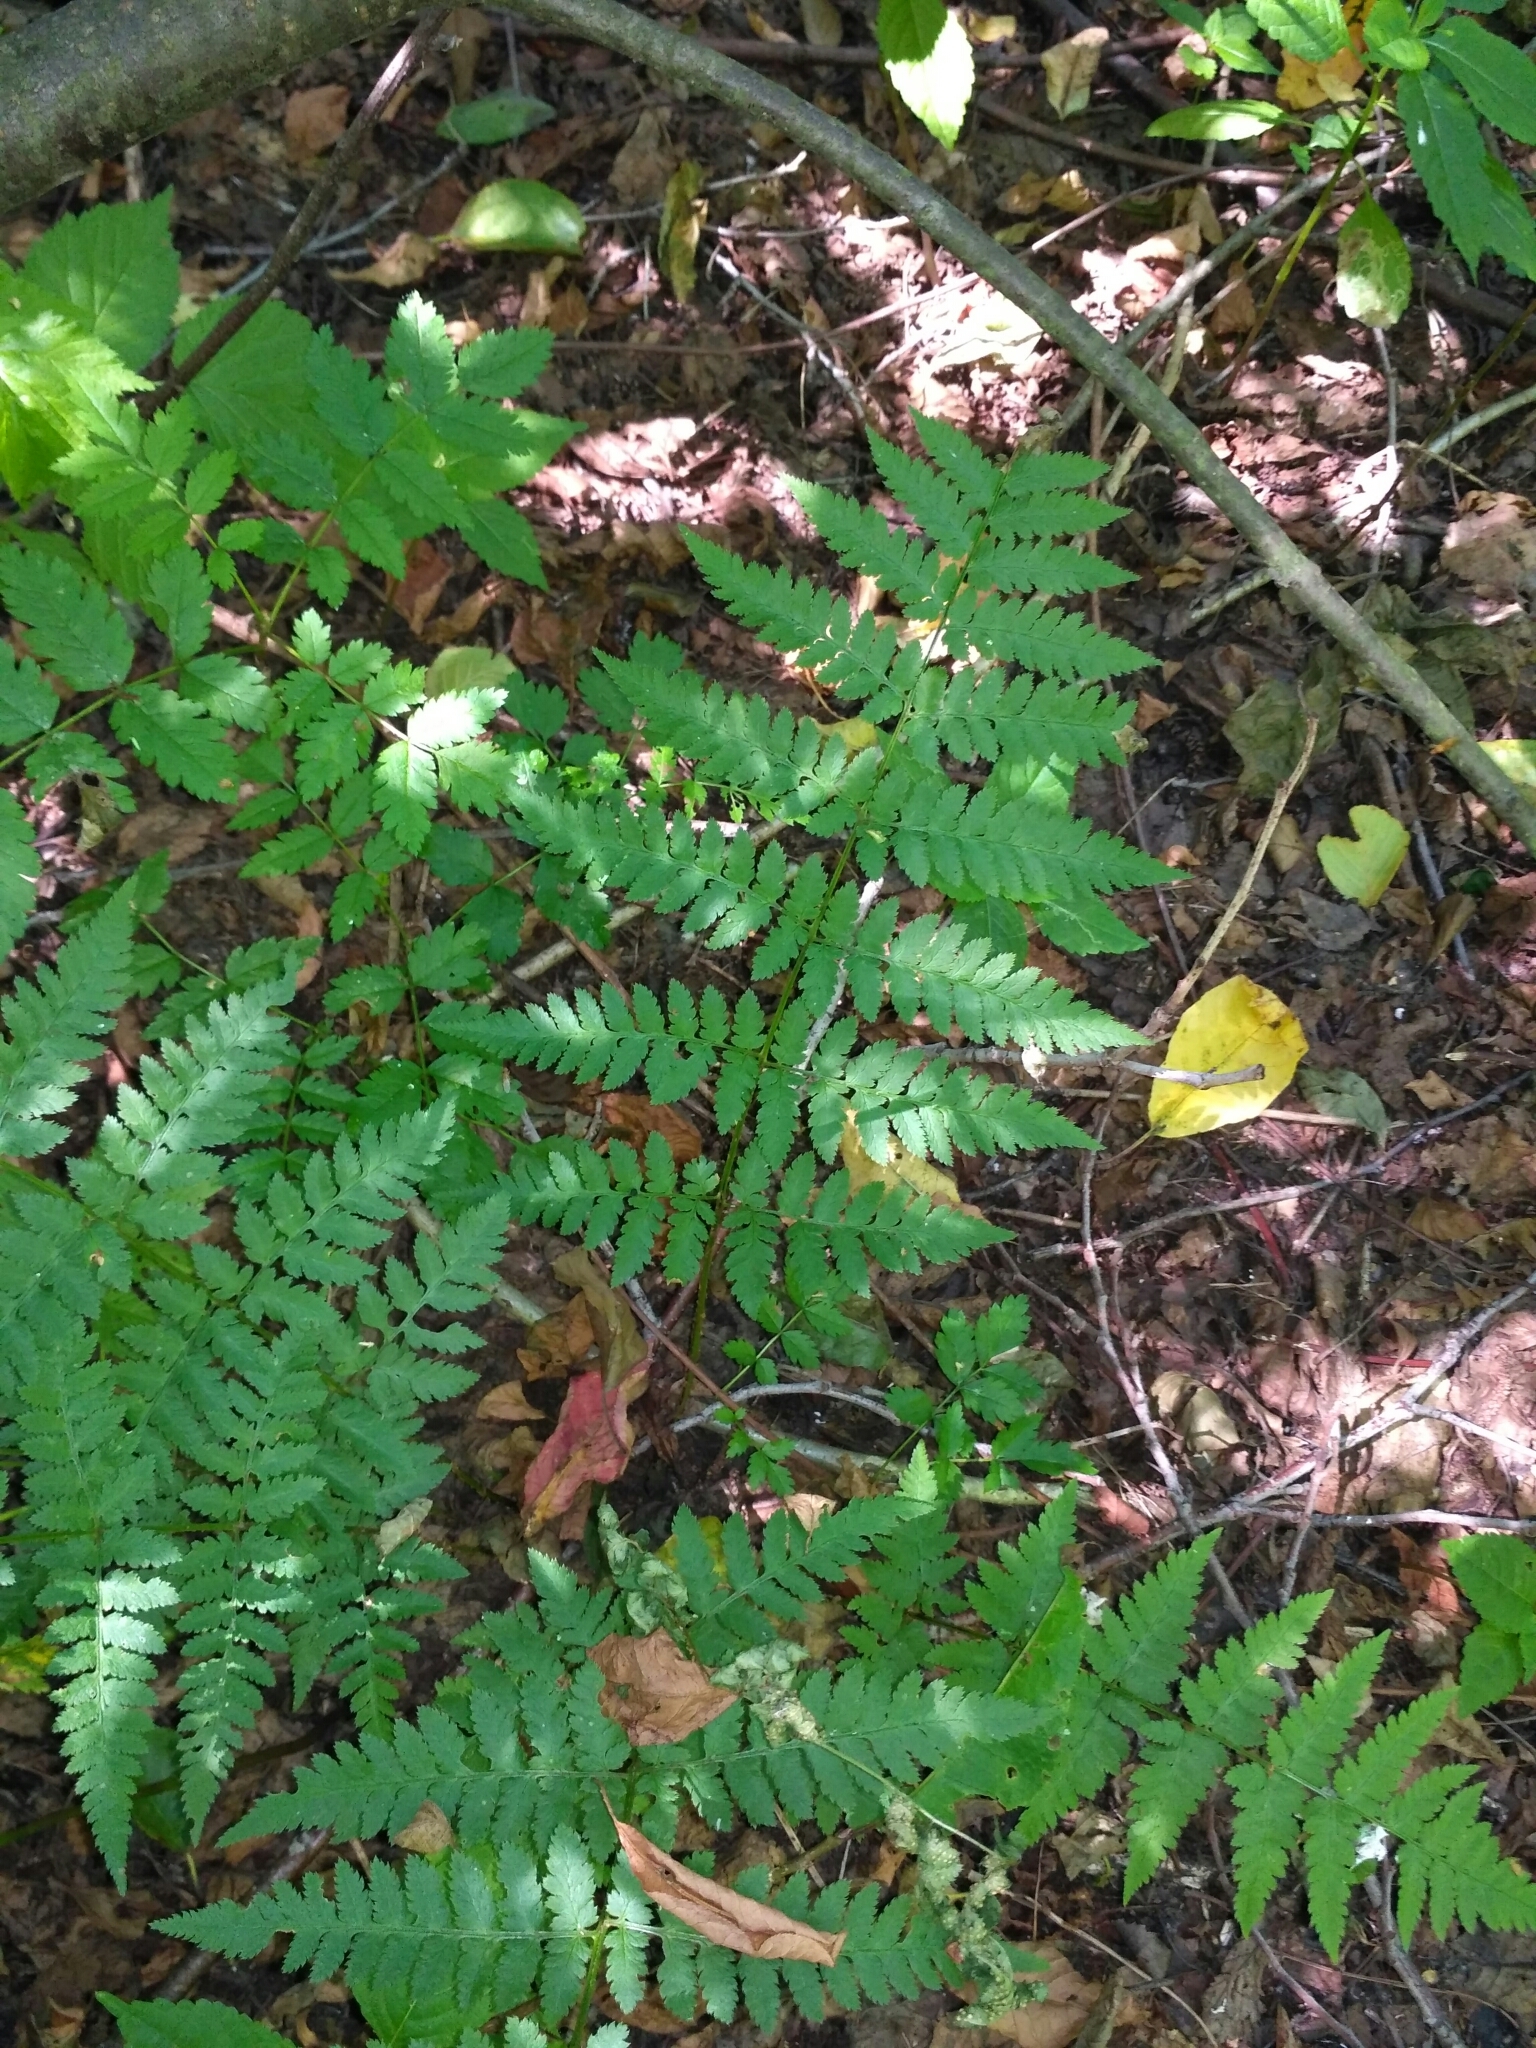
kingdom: Plantae
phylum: Tracheophyta
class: Polypodiopsida
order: Polypodiales
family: Dryopteridaceae
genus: Dryopteris
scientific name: Dryopteris carthusiana
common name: Narrow buckler-fern
